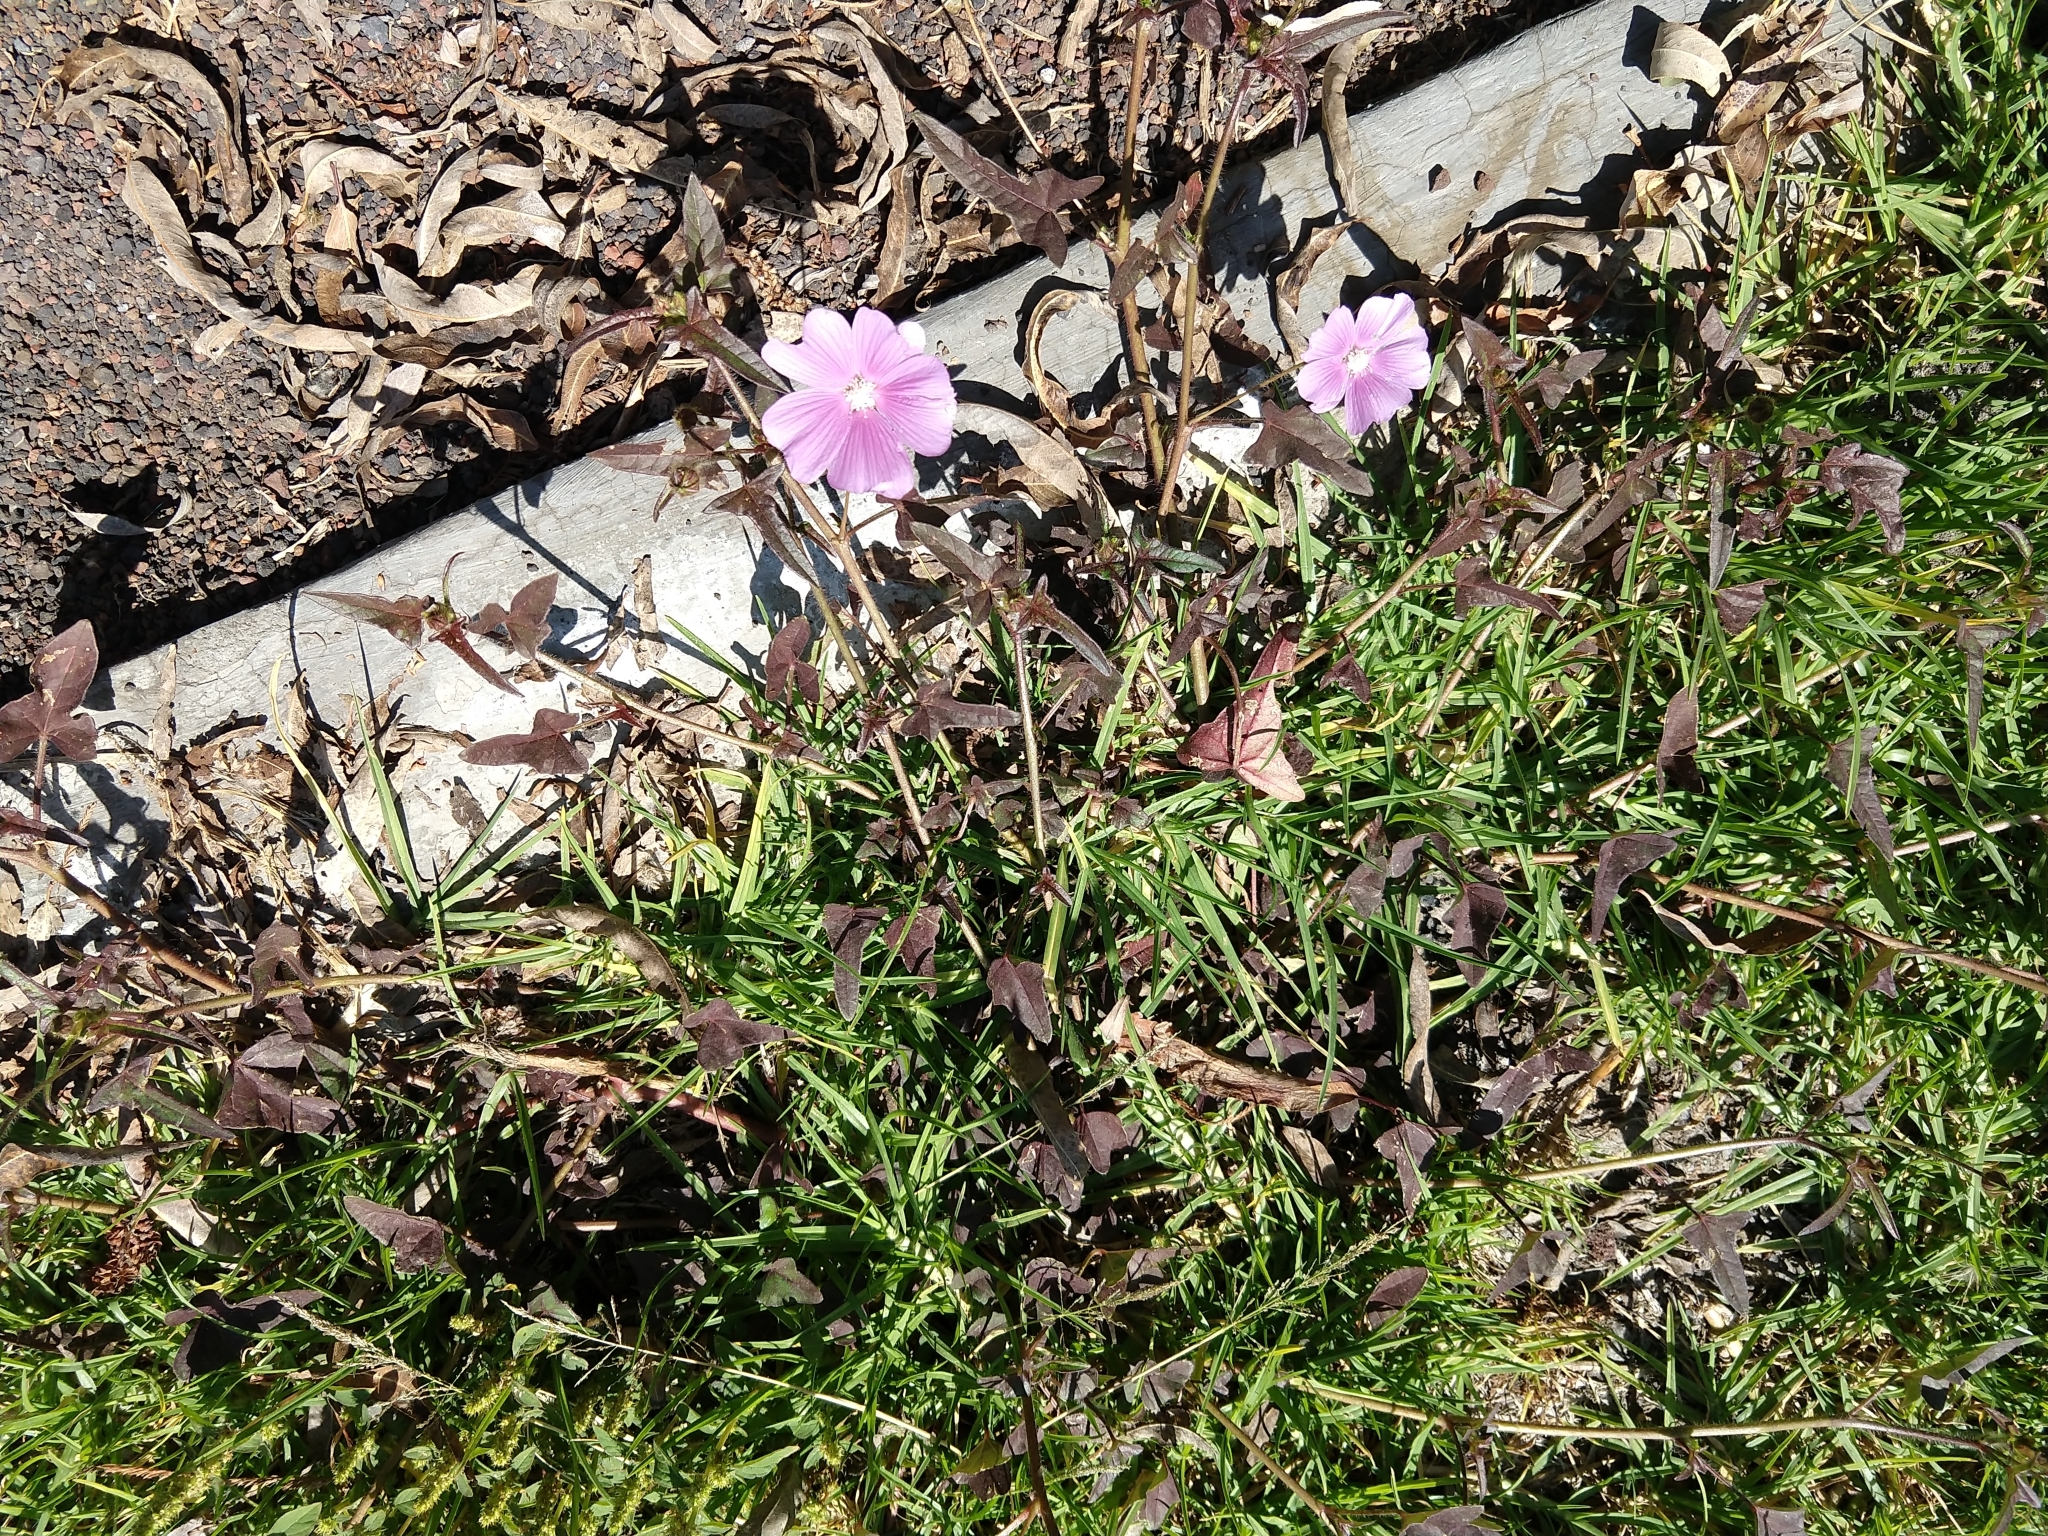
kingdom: Plantae
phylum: Tracheophyta
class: Magnoliopsida
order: Malvales
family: Malvaceae
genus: Anoda
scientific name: Anoda cristata
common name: Spurred anoda
